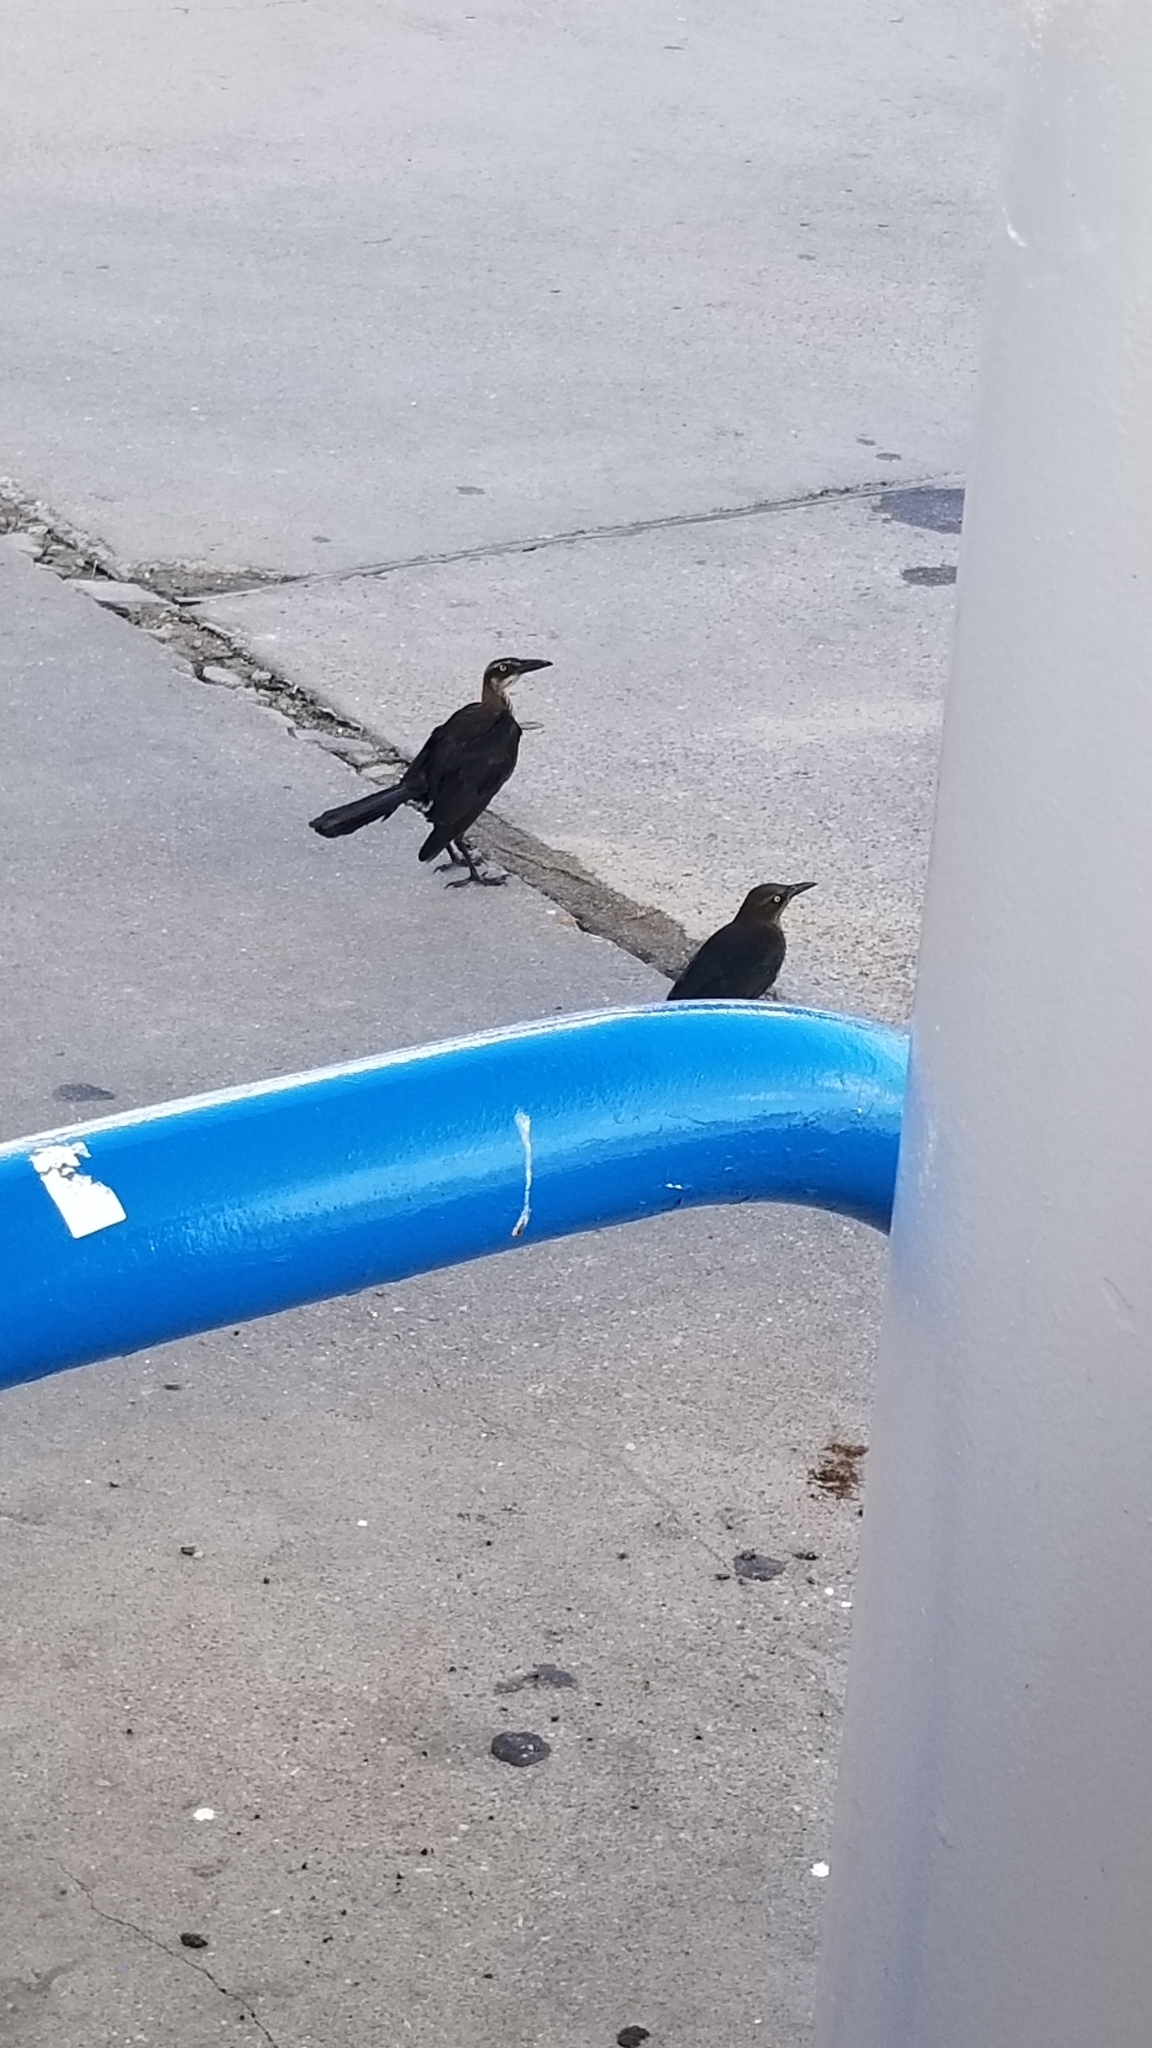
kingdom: Animalia
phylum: Chordata
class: Aves
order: Passeriformes
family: Icteridae
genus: Quiscalus
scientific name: Quiscalus mexicanus
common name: Great-tailed grackle
